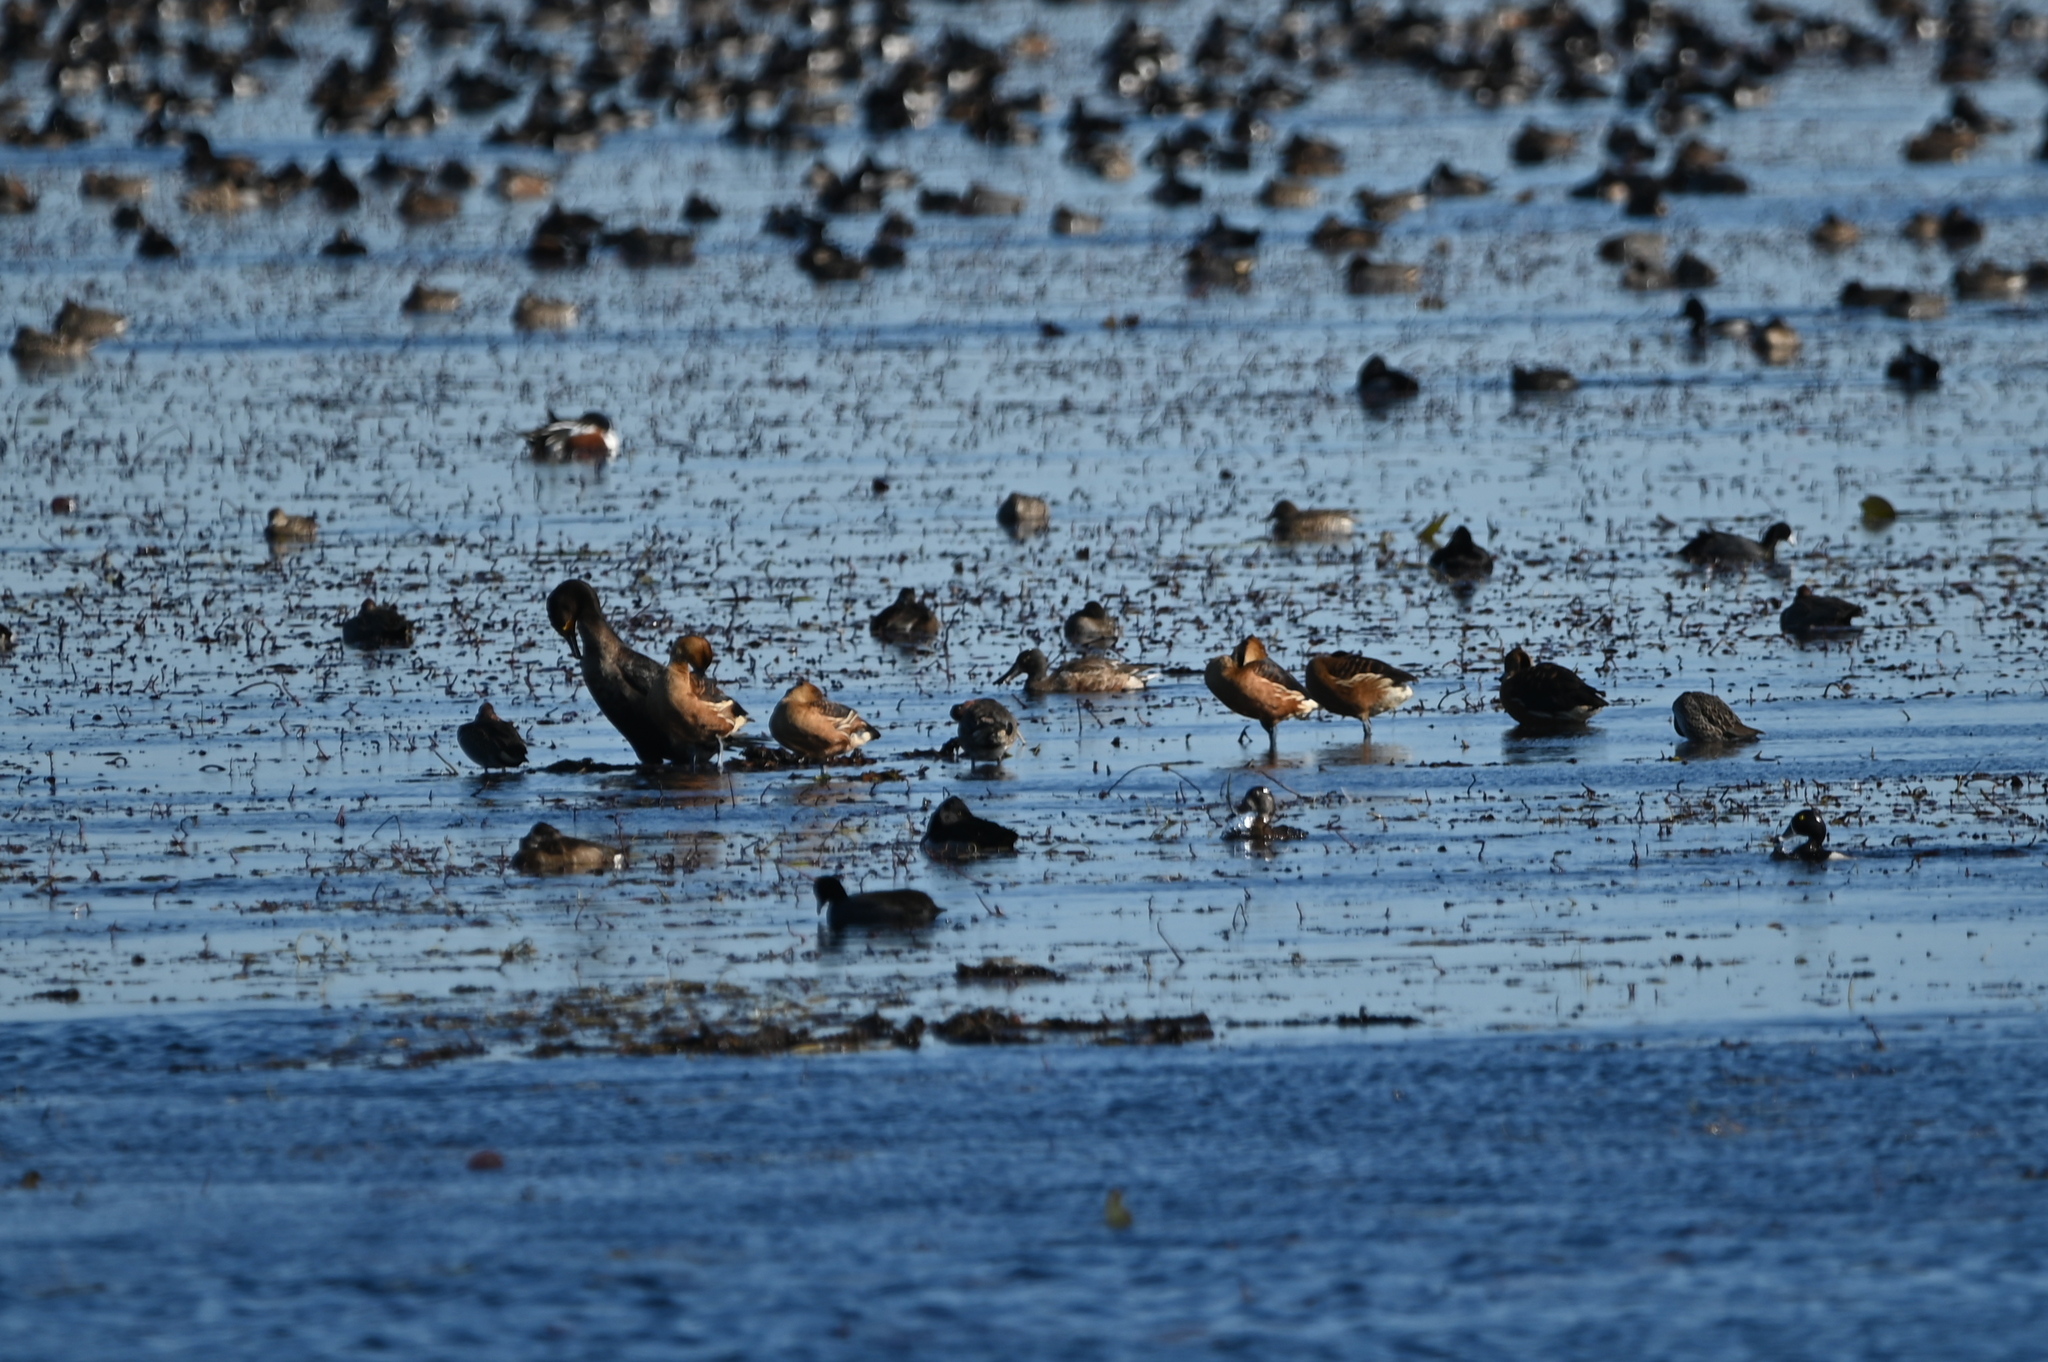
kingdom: Animalia
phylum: Chordata
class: Aves
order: Anseriformes
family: Anatidae
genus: Dendrocygna
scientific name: Dendrocygna bicolor
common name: Fulvous whistling duck
